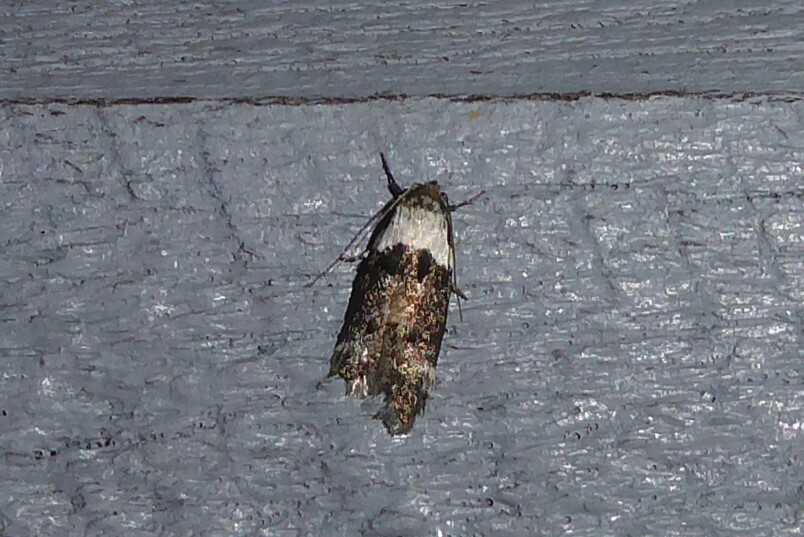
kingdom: Animalia
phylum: Arthropoda
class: Insecta
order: Lepidoptera
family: Oecophoridae
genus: Trachypepla
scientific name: Trachypepla conspicuella
